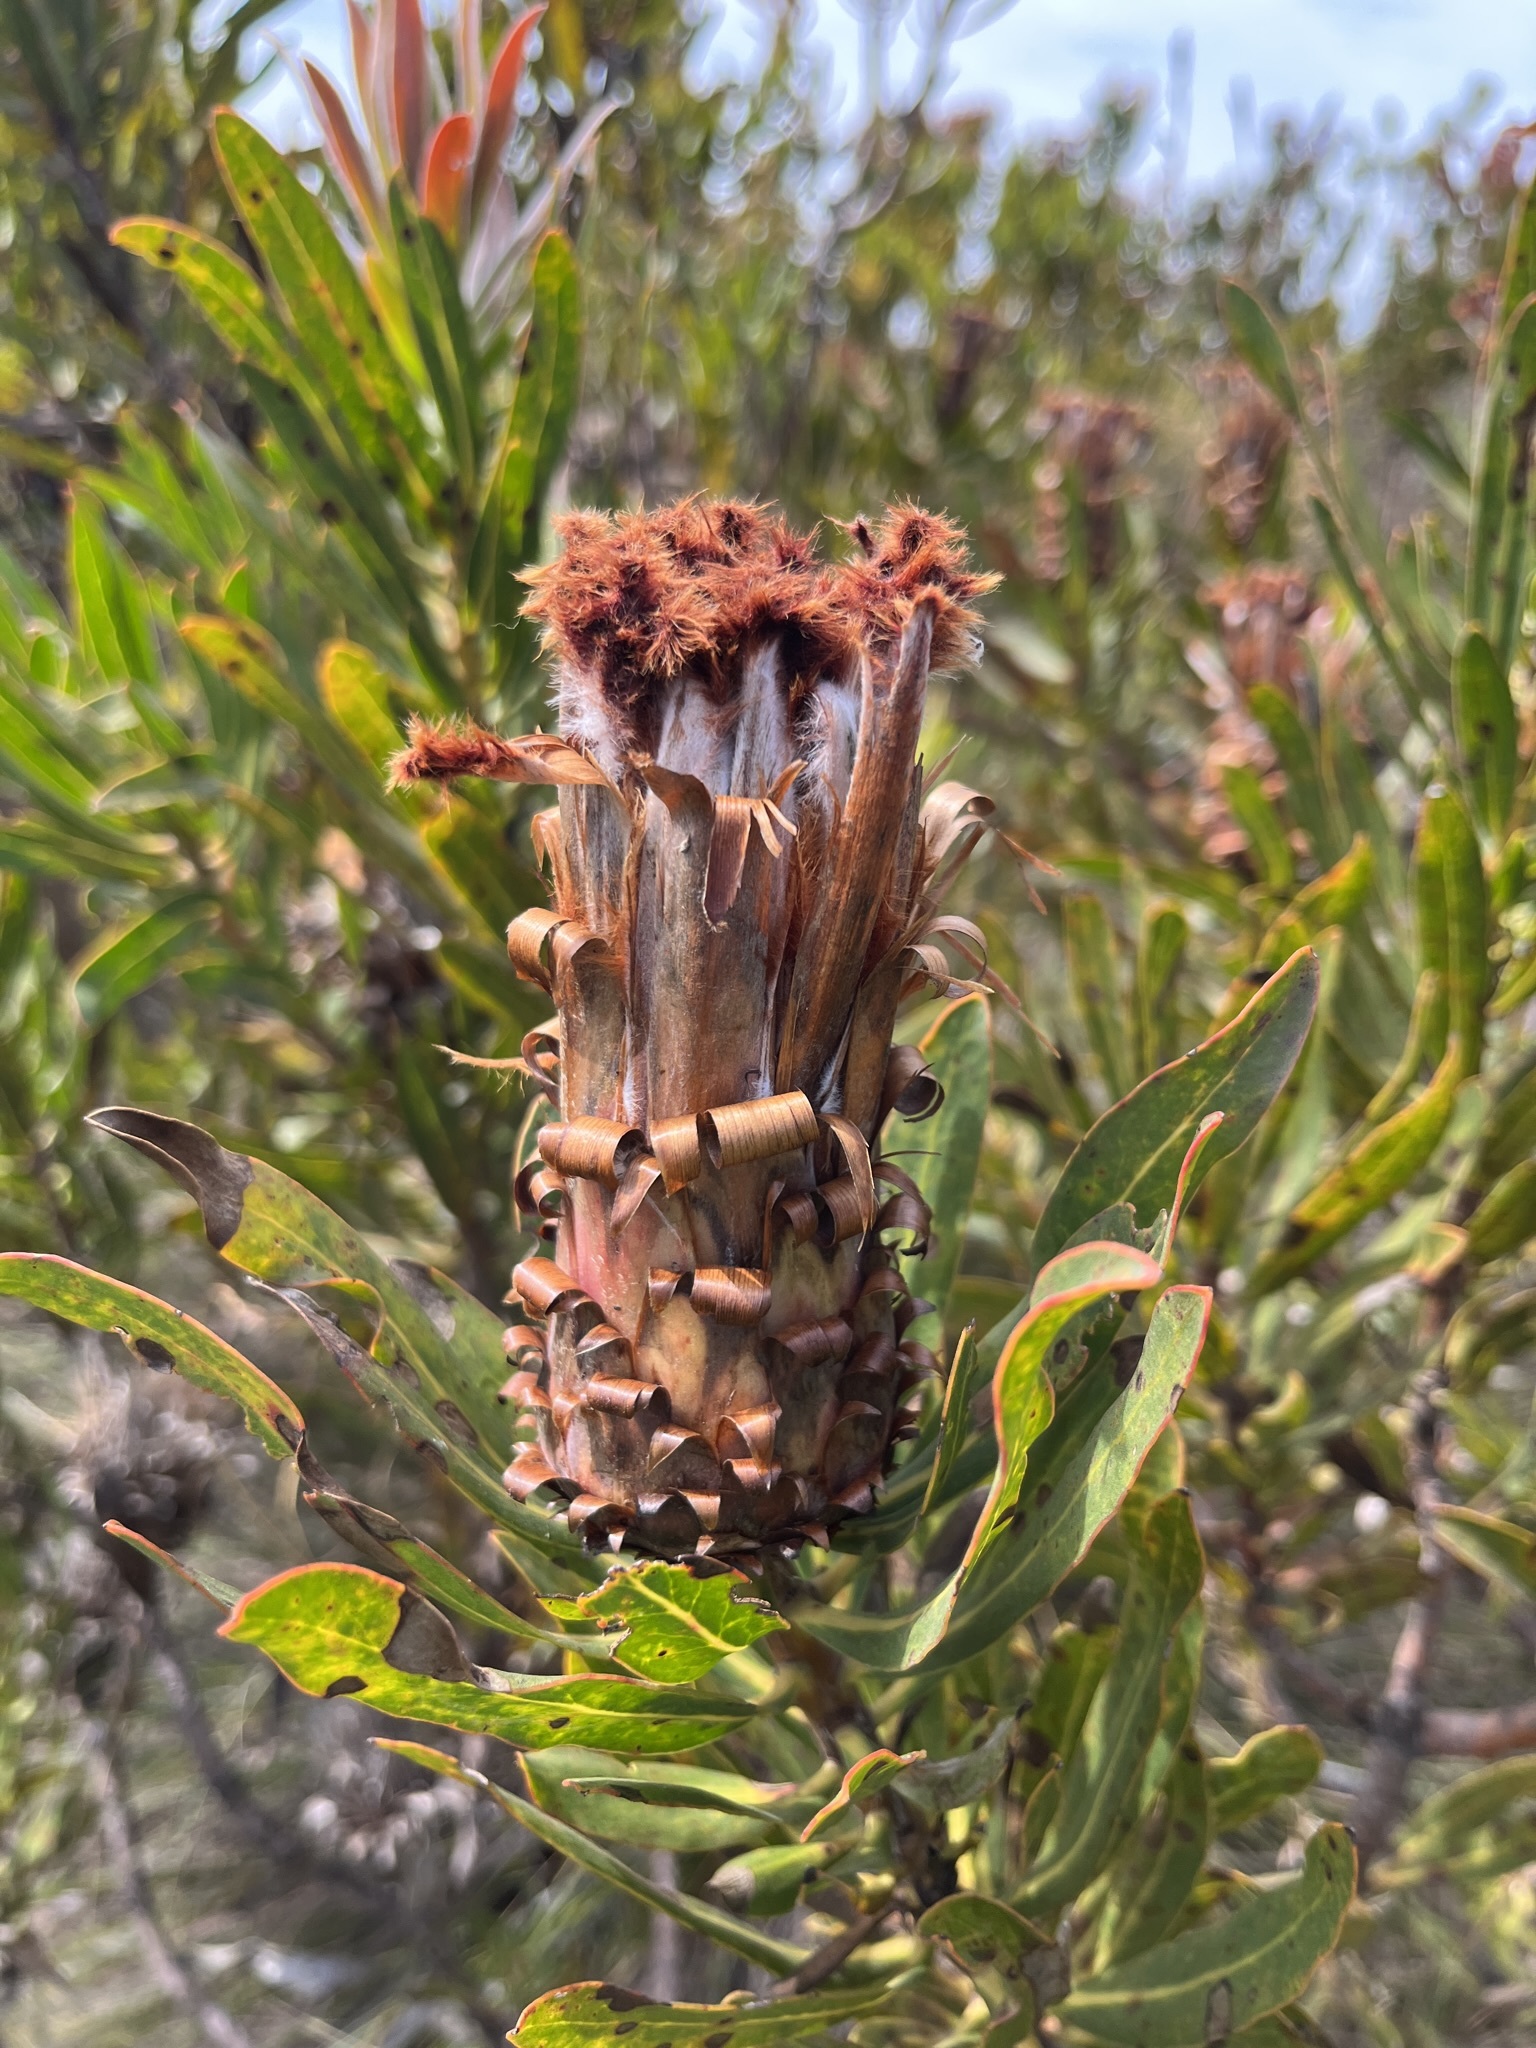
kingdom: Plantae
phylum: Tracheophyta
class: Magnoliopsida
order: Proteales
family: Proteaceae
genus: Protea
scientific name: Protea neriifolia
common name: Blue sugarbush
